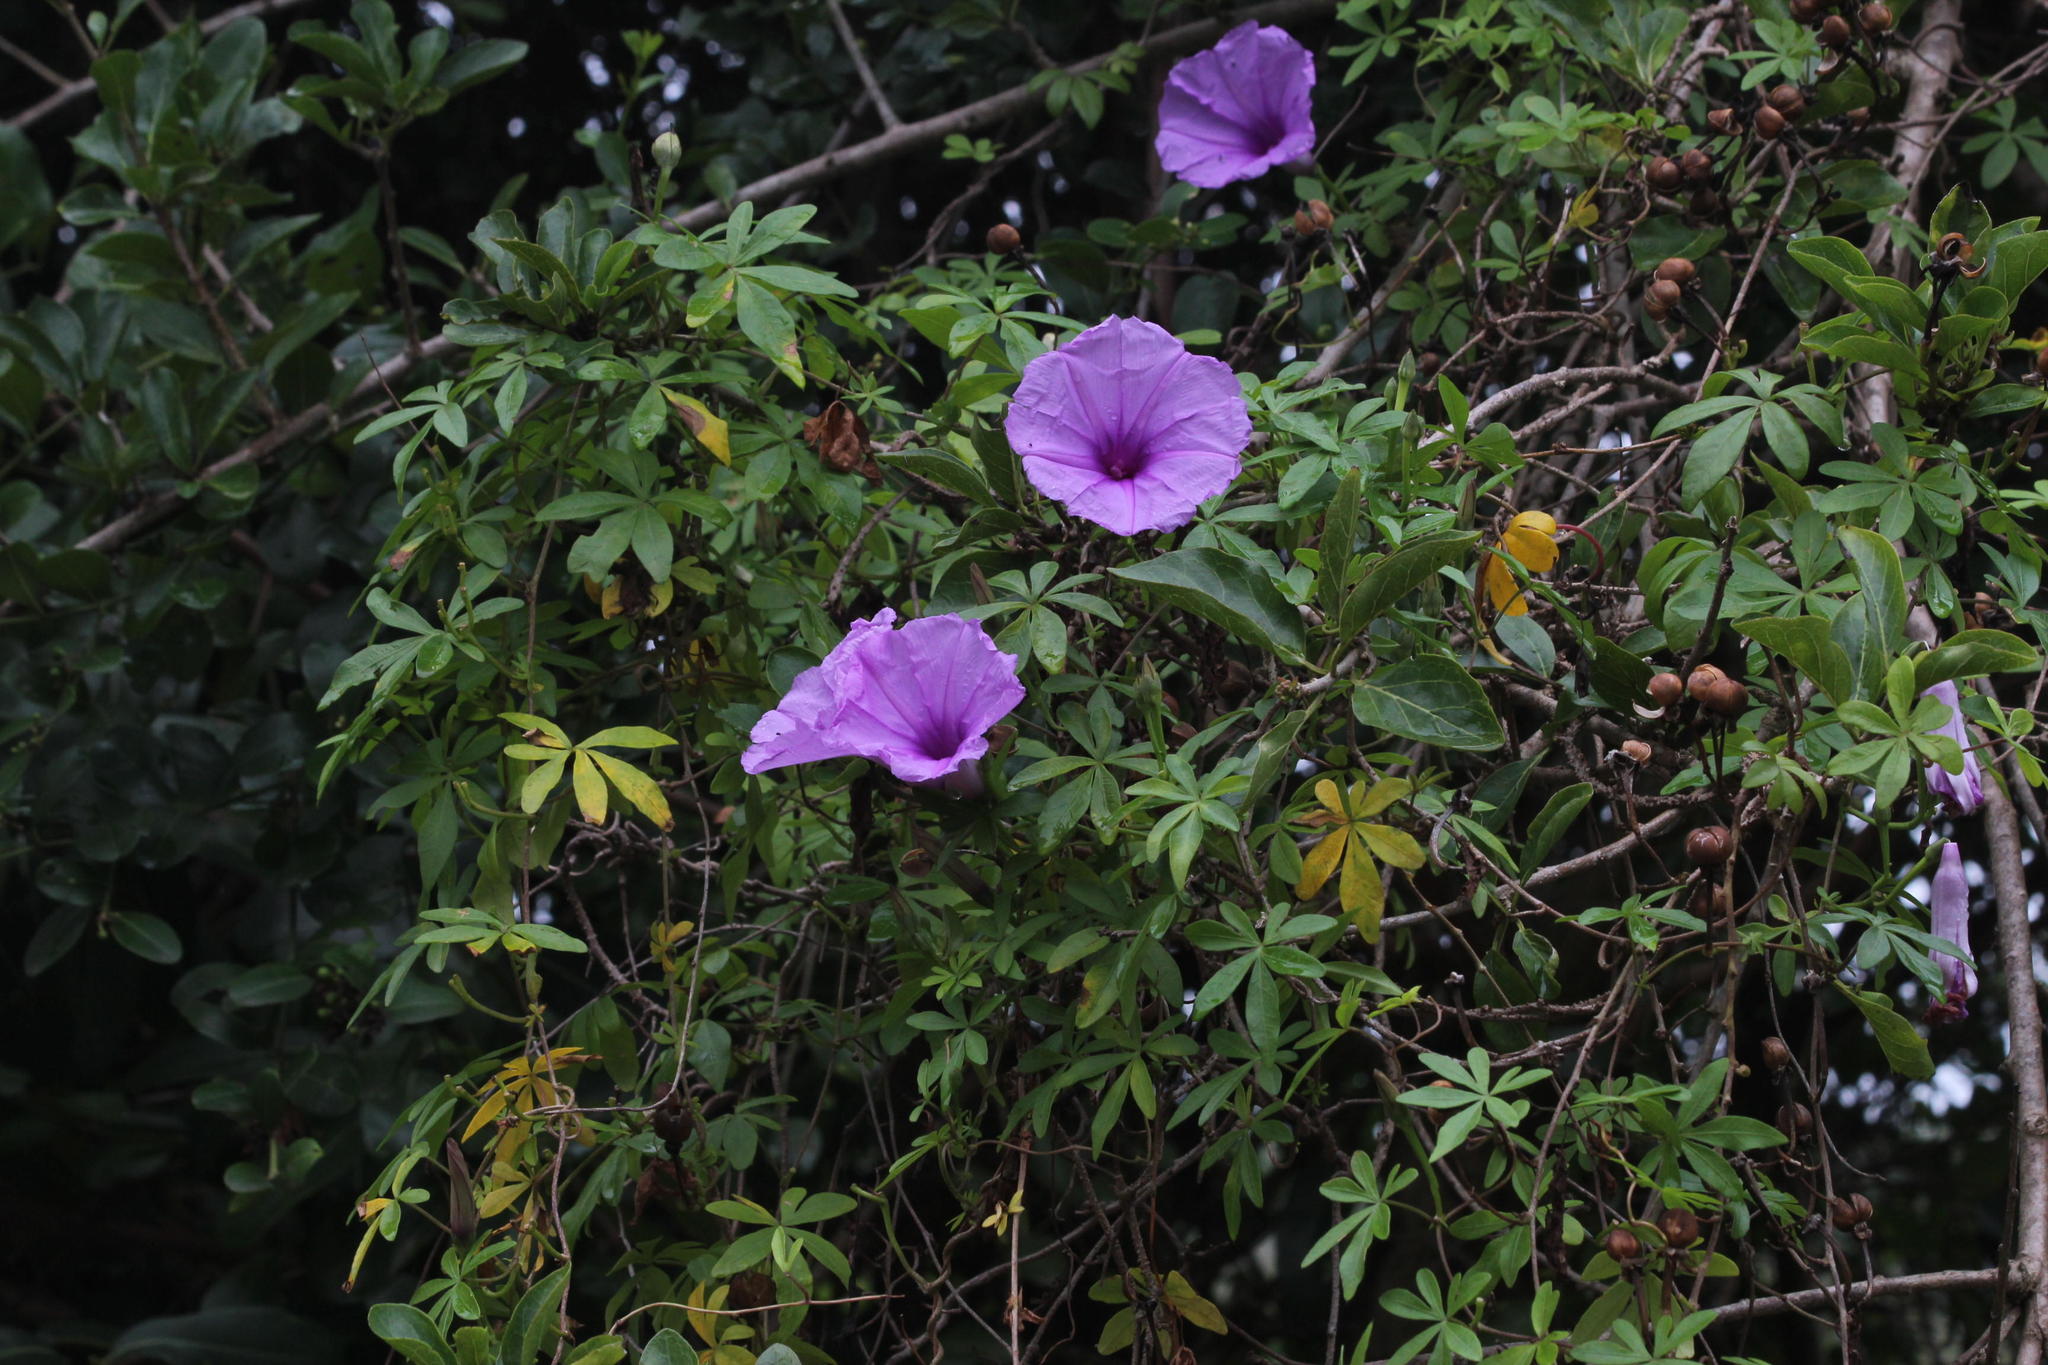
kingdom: Plantae
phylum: Tracheophyta
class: Magnoliopsida
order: Solanales
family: Convolvulaceae
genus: Ipomoea
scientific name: Ipomoea cairica
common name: Mile a minute vine
